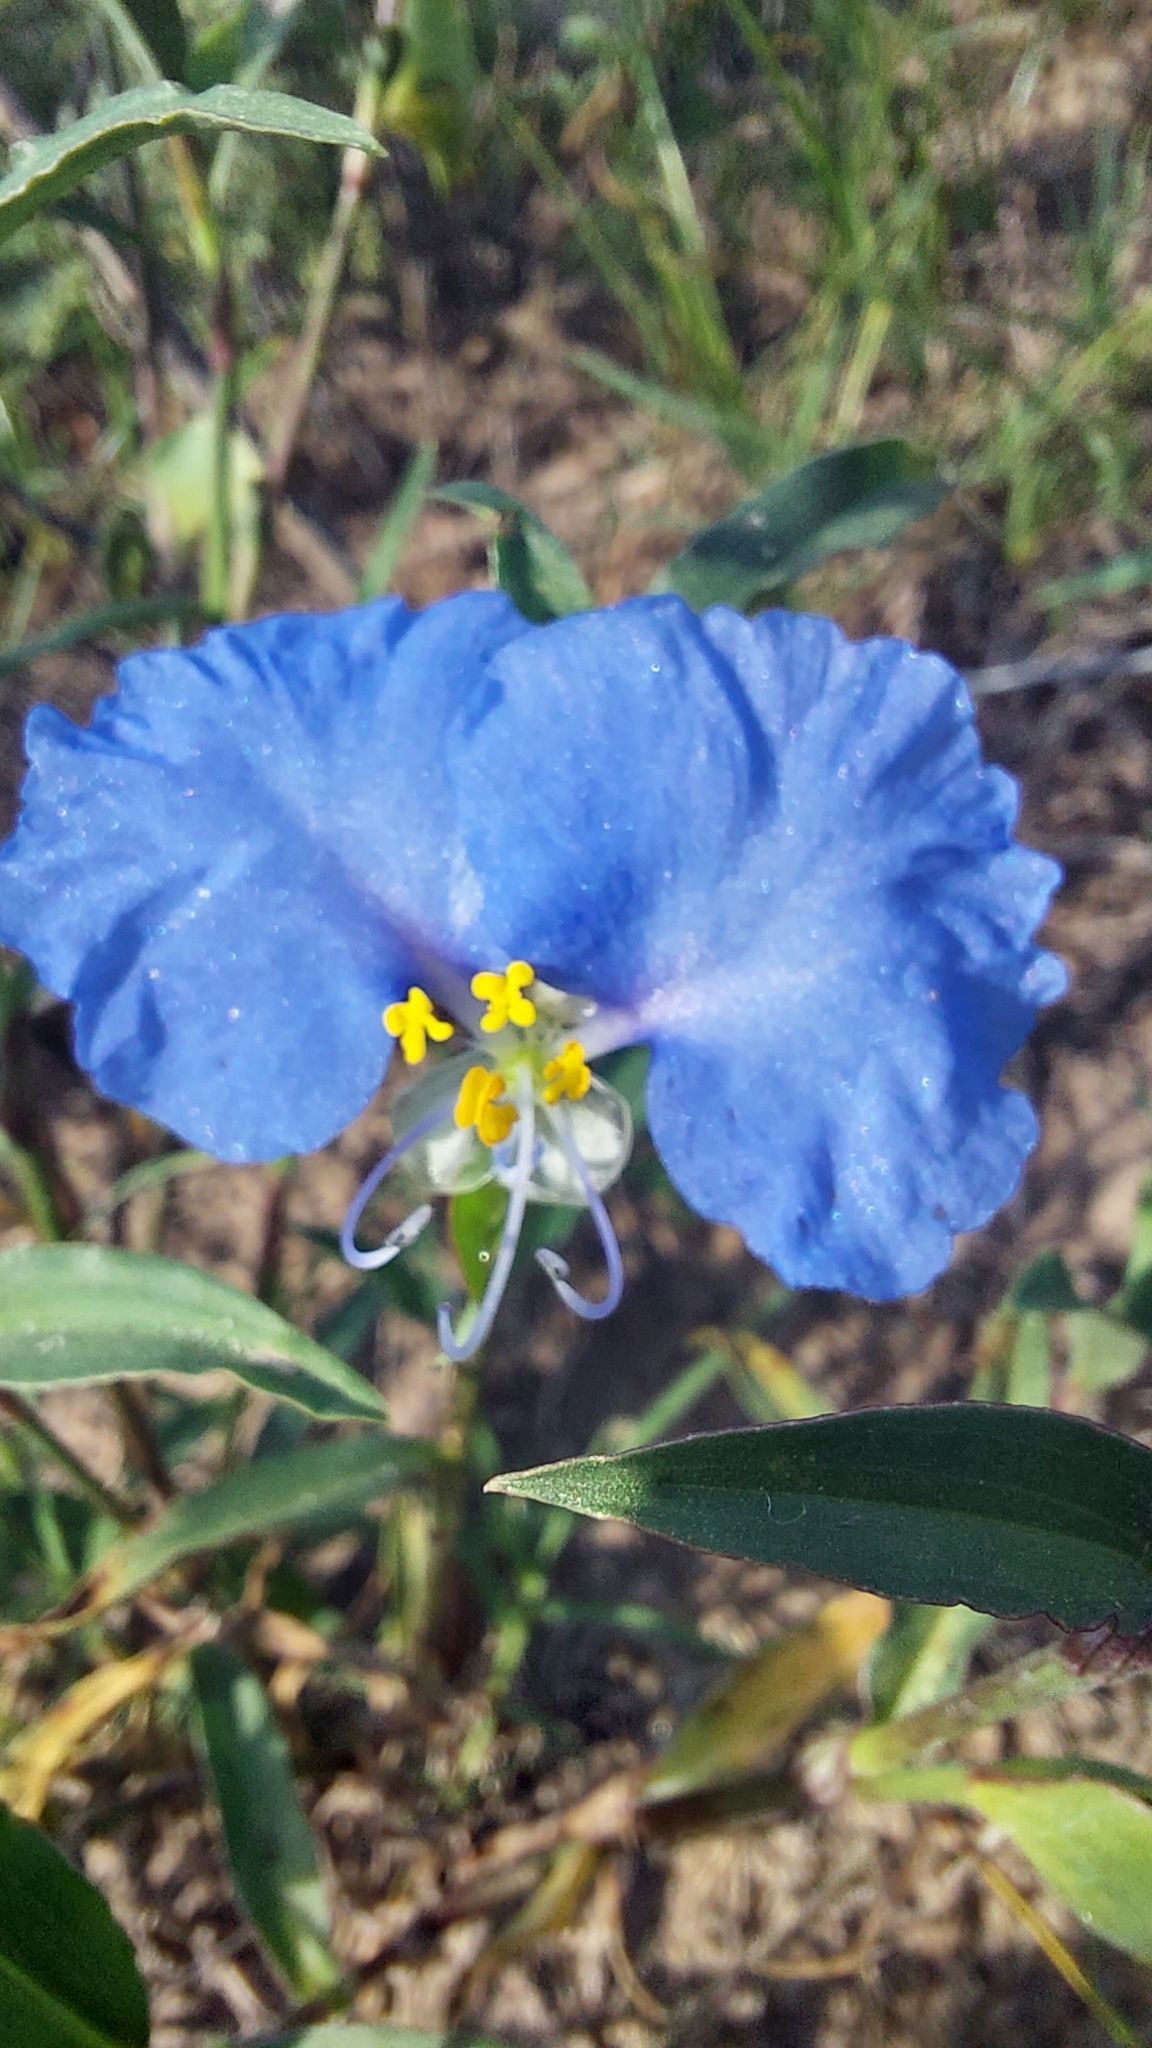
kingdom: Plantae
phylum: Tracheophyta
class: Liliopsida
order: Commelinales
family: Commelinaceae
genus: Commelina
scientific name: Commelina erecta
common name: Blousel blommetjie
